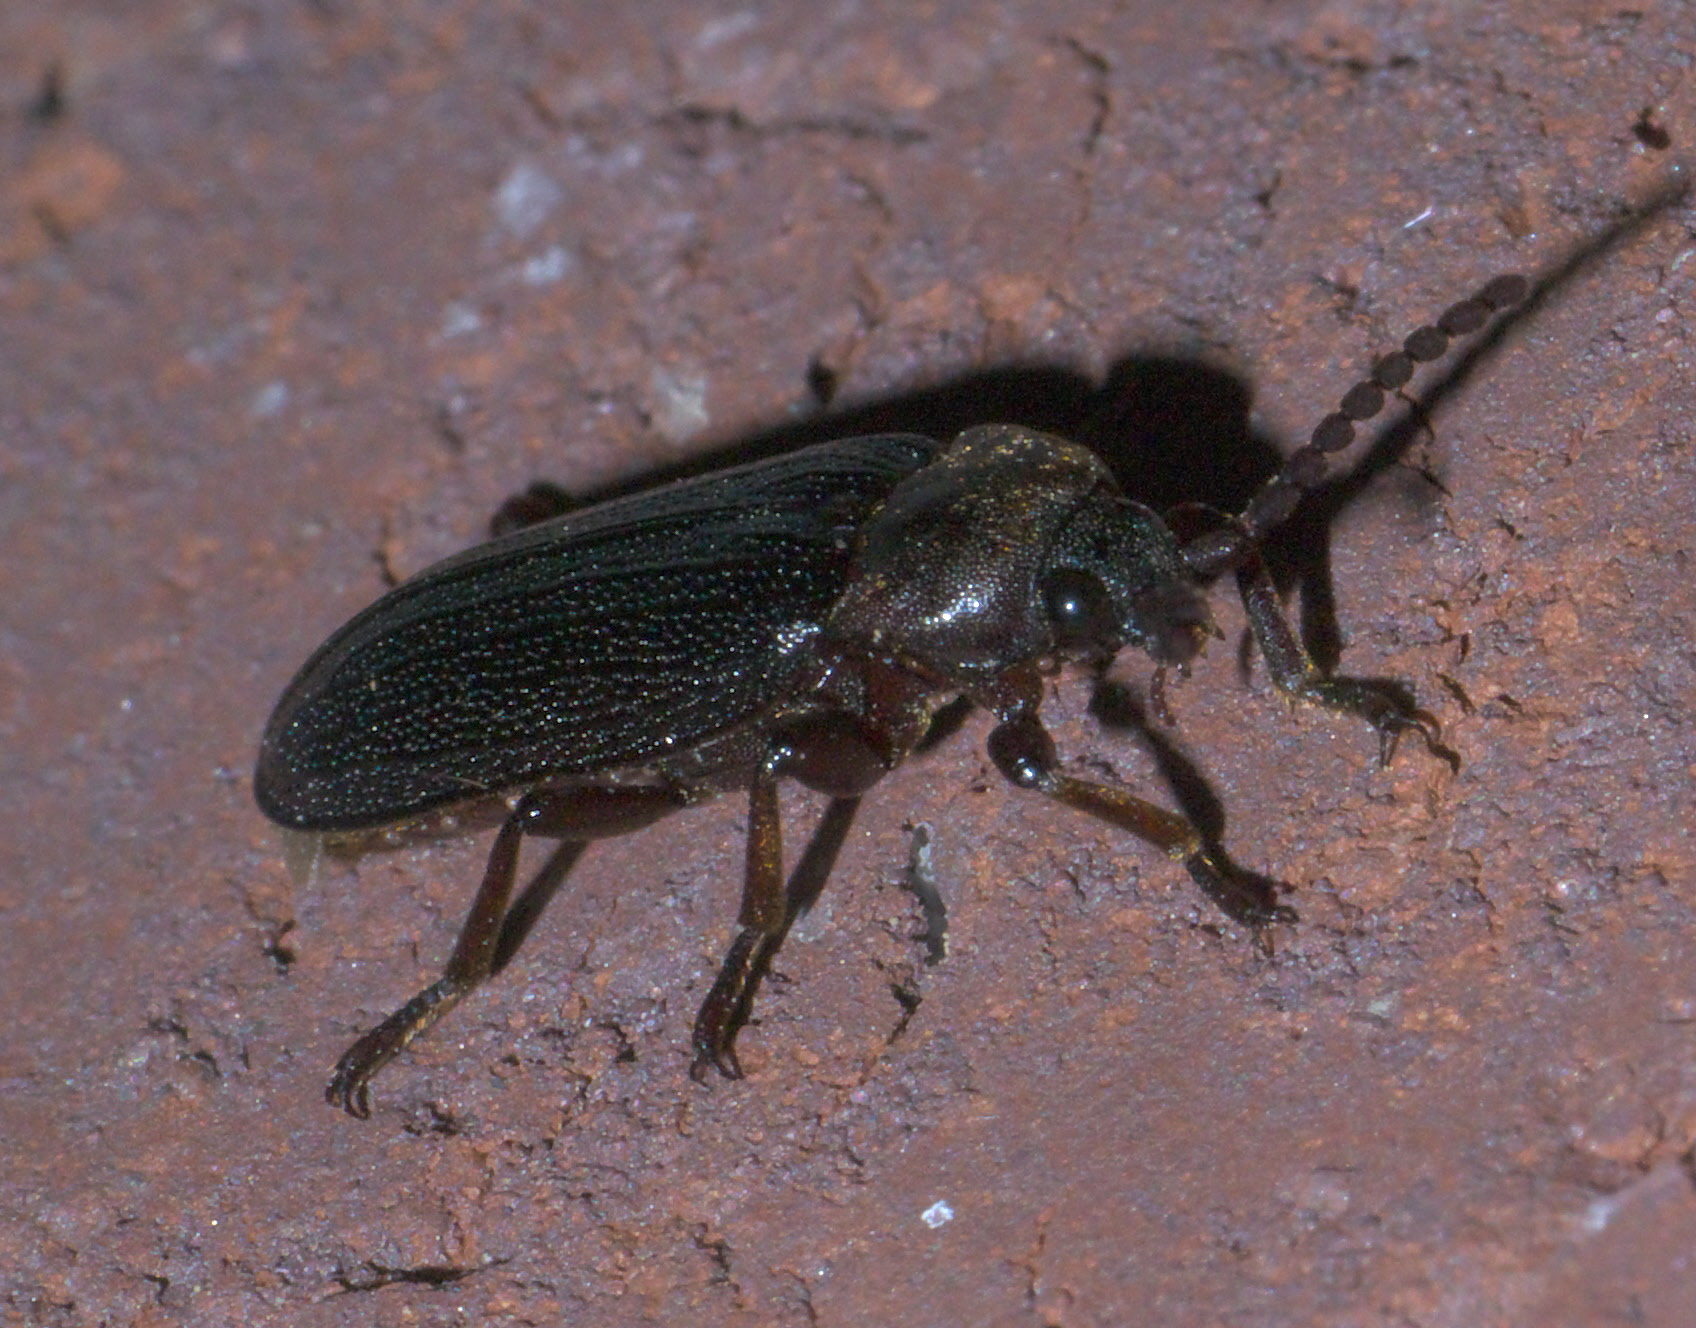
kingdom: Animalia
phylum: Arthropoda
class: Insecta
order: Coleoptera
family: Callirhipidae
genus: Zenoa
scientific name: Zenoa picea
